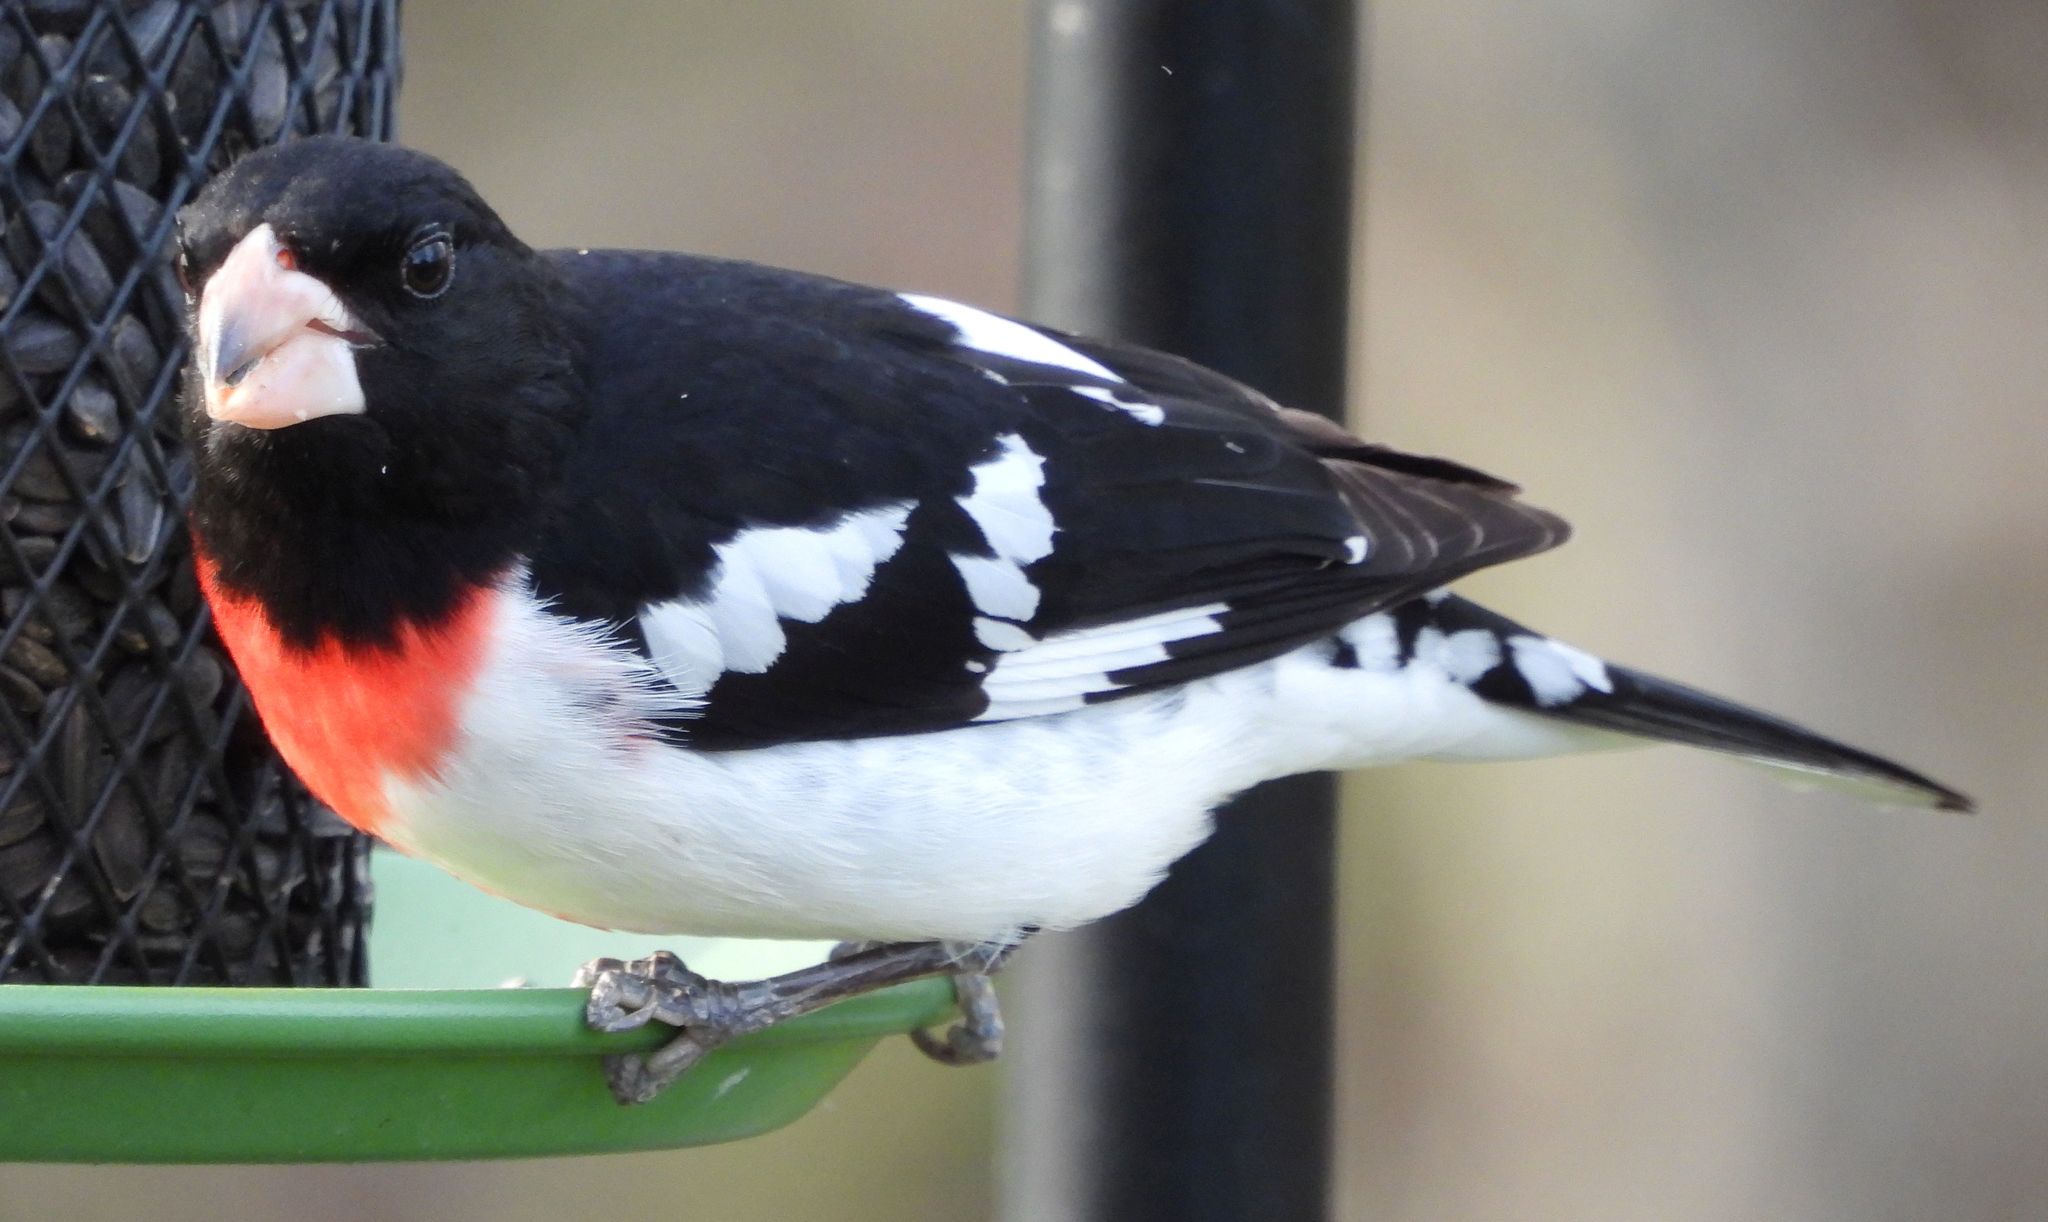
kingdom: Animalia
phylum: Chordata
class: Aves
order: Passeriformes
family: Cardinalidae
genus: Pheucticus
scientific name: Pheucticus ludovicianus
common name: Rose-breasted grosbeak
